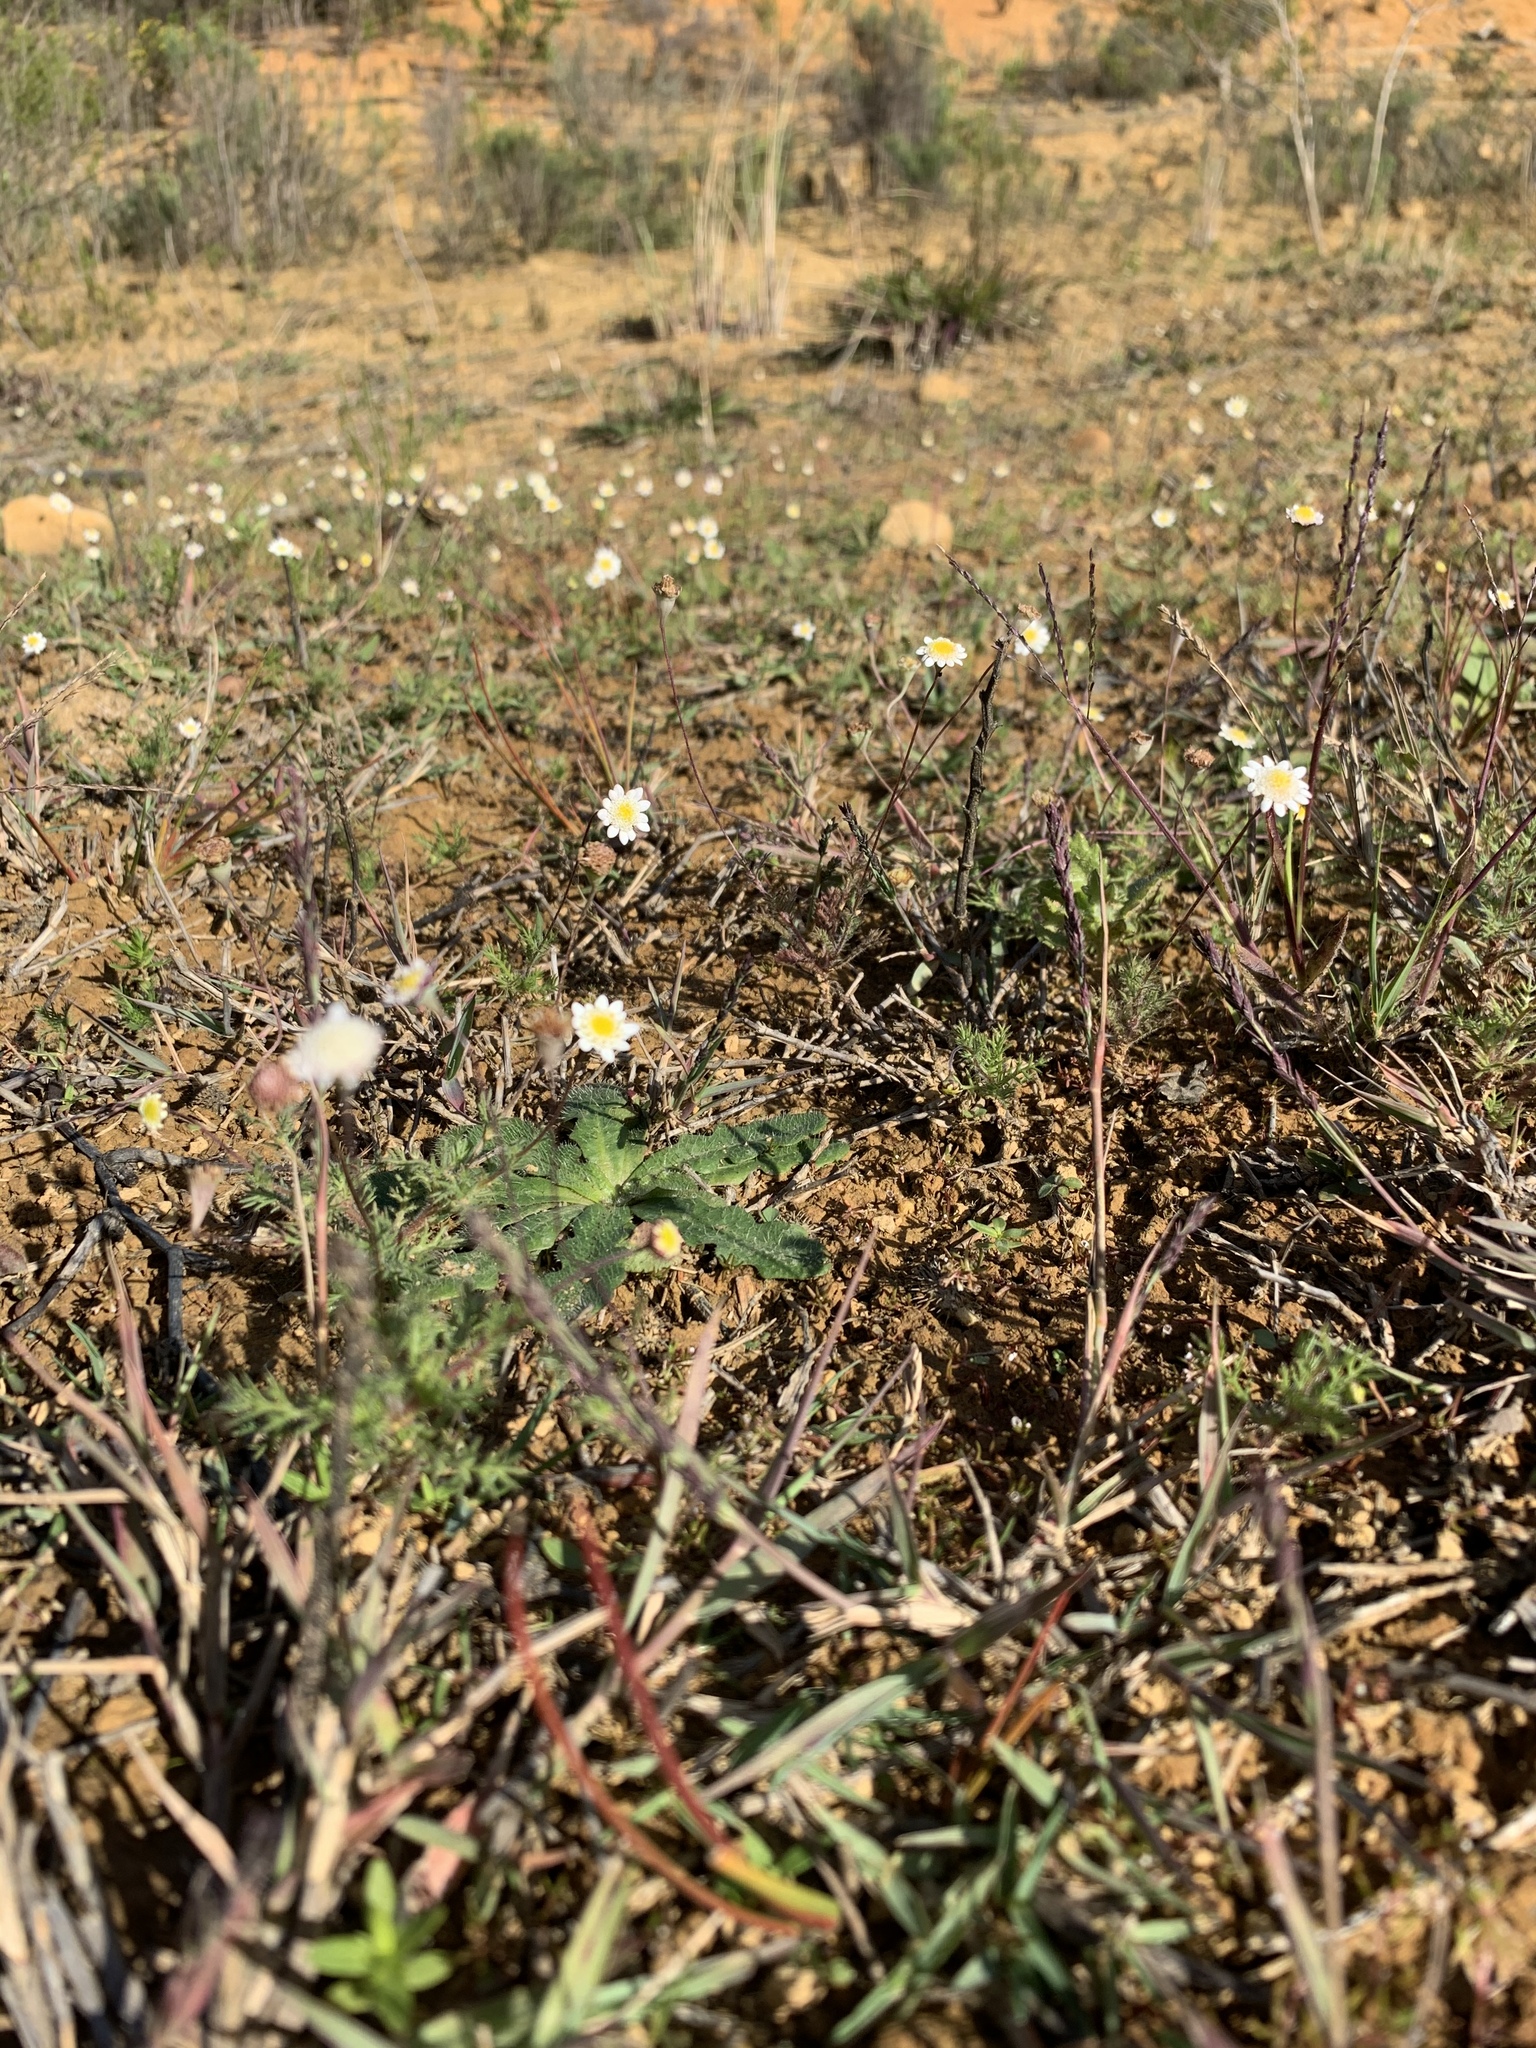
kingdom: Plantae
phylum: Tracheophyta
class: Magnoliopsida
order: Asterales
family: Asteraceae
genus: Cotula
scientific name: Cotula turbinata
